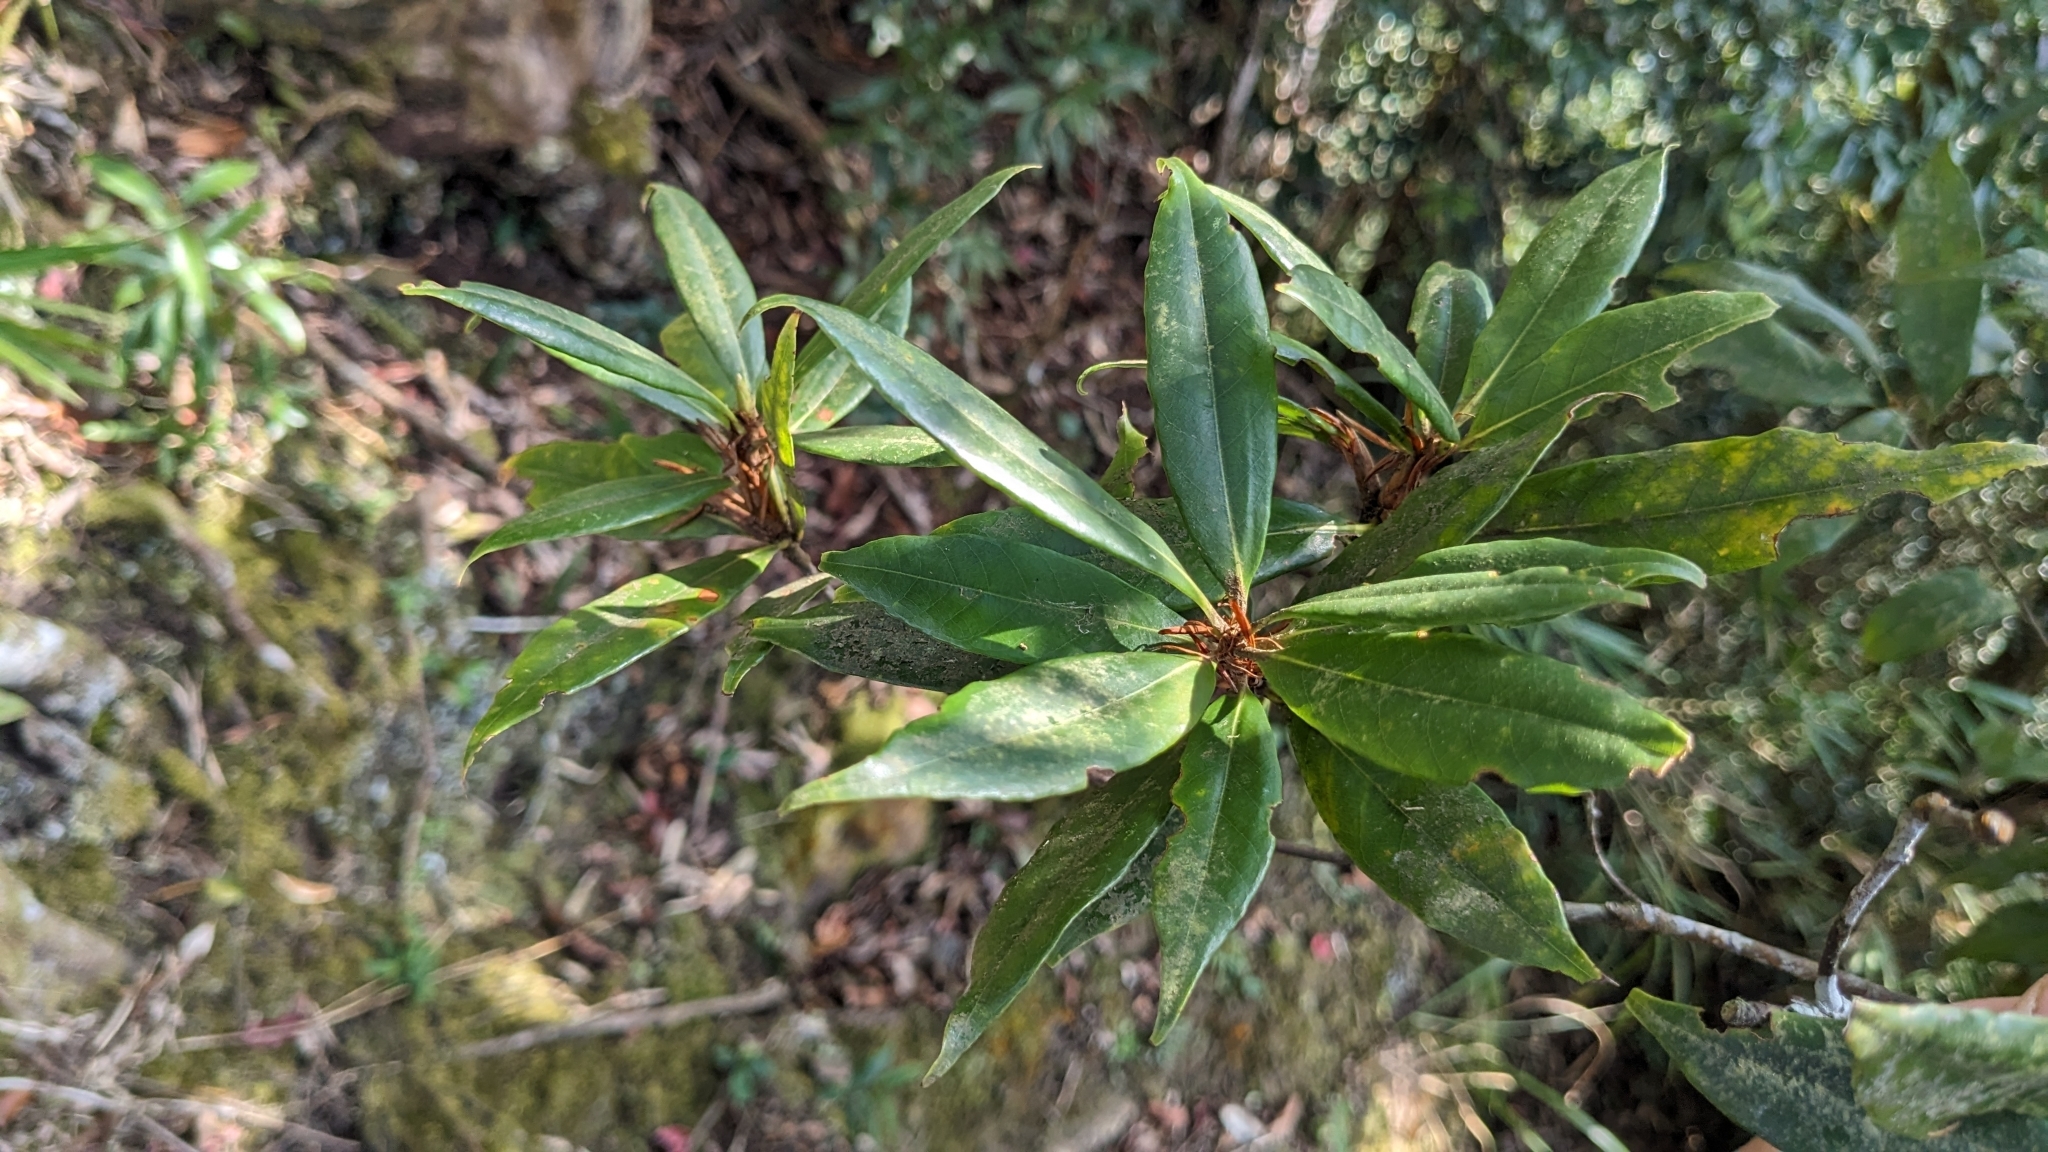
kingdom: Plantae
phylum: Tracheophyta
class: Magnoliopsida
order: Fagales
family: Fagaceae
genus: Quercus
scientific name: Quercus sessilifolia
